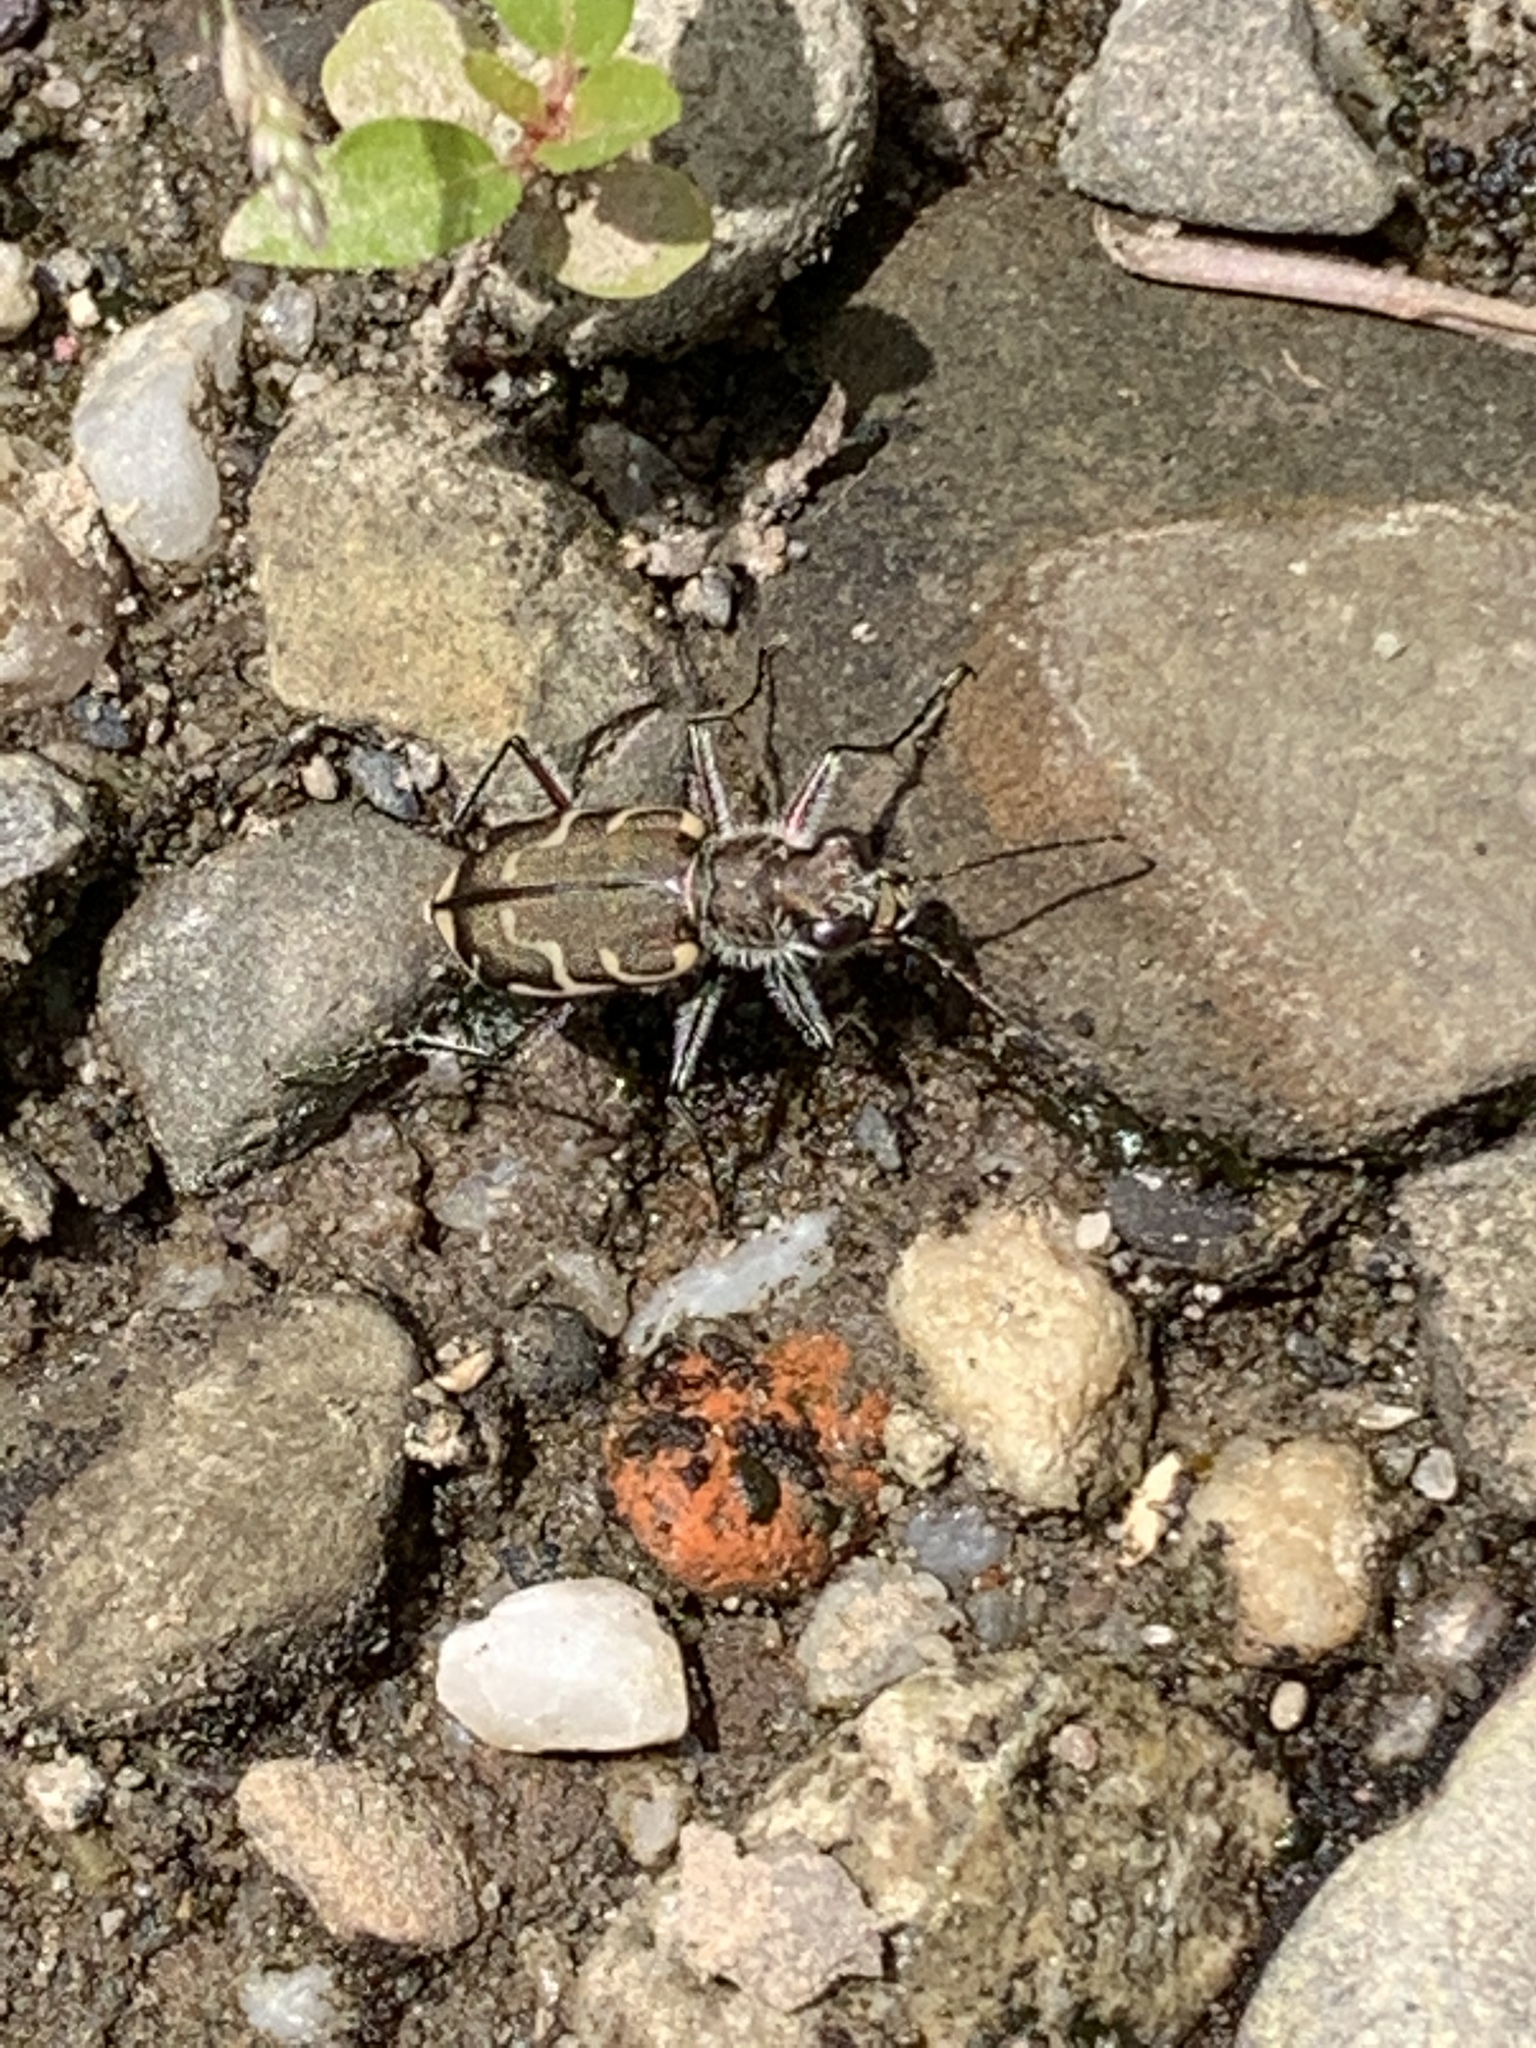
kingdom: Animalia
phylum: Arthropoda
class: Insecta
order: Coleoptera
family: Carabidae
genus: Cicindela
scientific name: Cicindela repanda
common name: Bronzed tiger beetle
